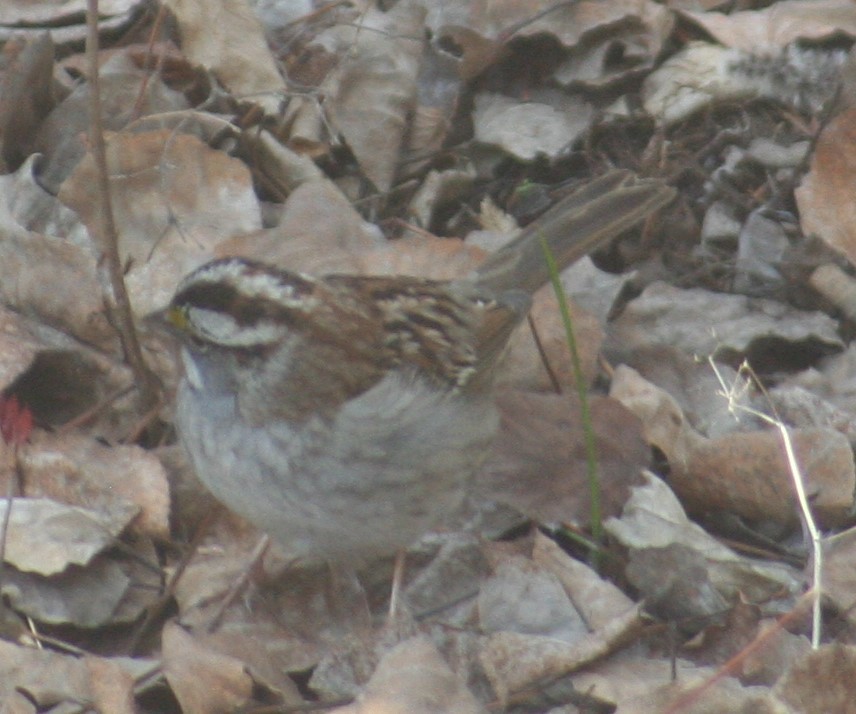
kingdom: Animalia
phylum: Chordata
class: Aves
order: Passeriformes
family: Passerellidae
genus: Zonotrichia
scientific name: Zonotrichia albicollis
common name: White-throated sparrow
